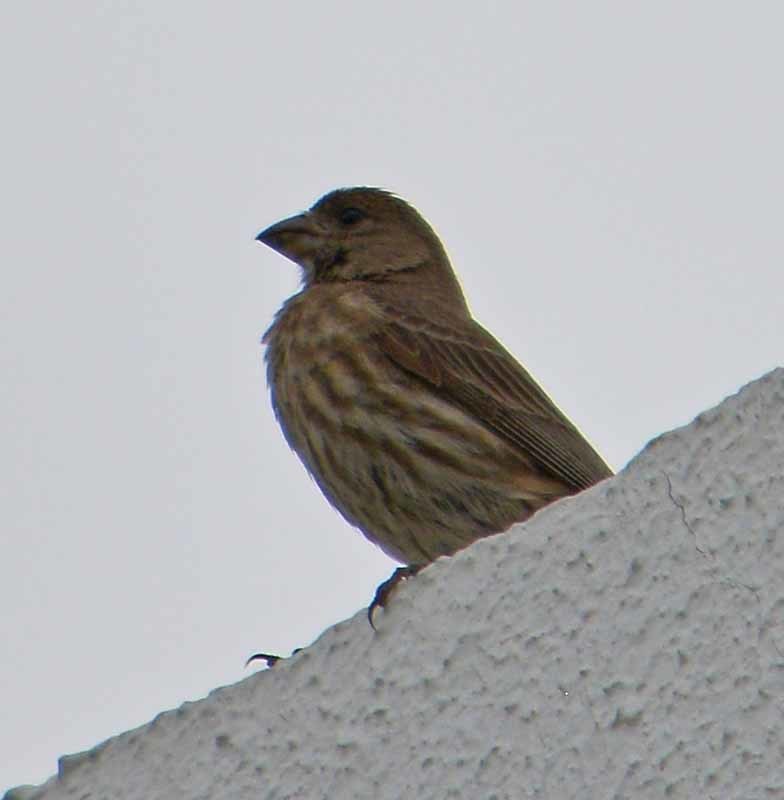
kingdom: Animalia
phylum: Chordata
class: Aves
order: Passeriformes
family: Fringillidae
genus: Haemorhous
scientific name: Haemorhous mexicanus
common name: House finch
